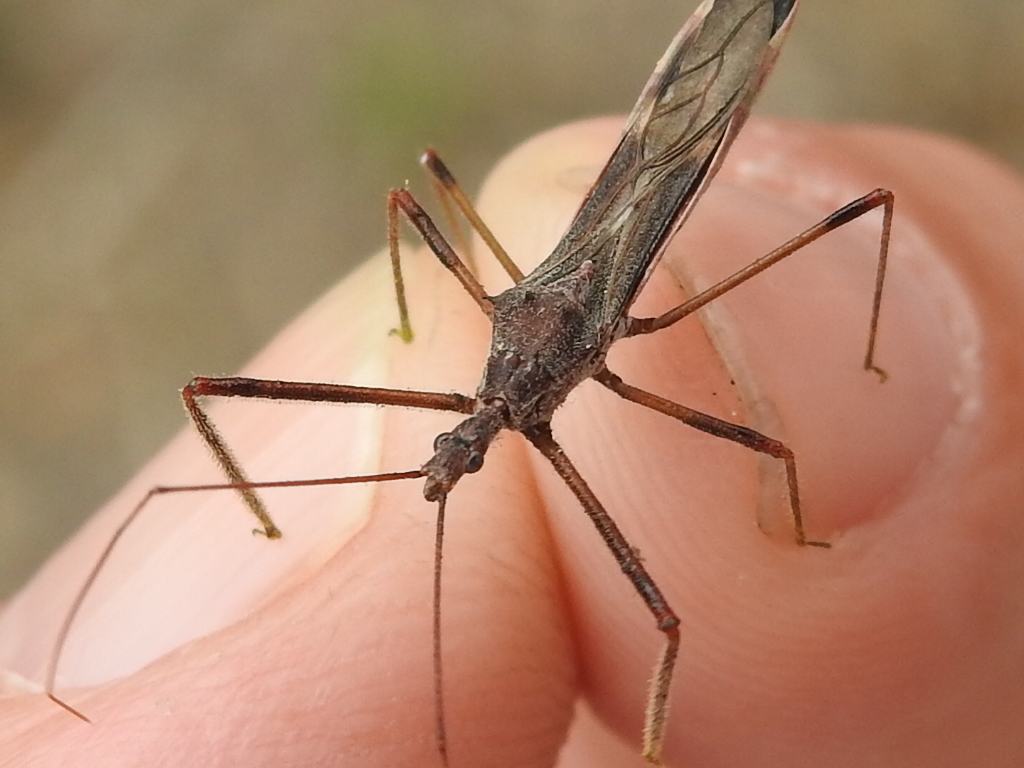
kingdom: Animalia
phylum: Arthropoda
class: Insecta
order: Hemiptera
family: Reduviidae
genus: Zelus
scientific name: Zelus tetracanthus
